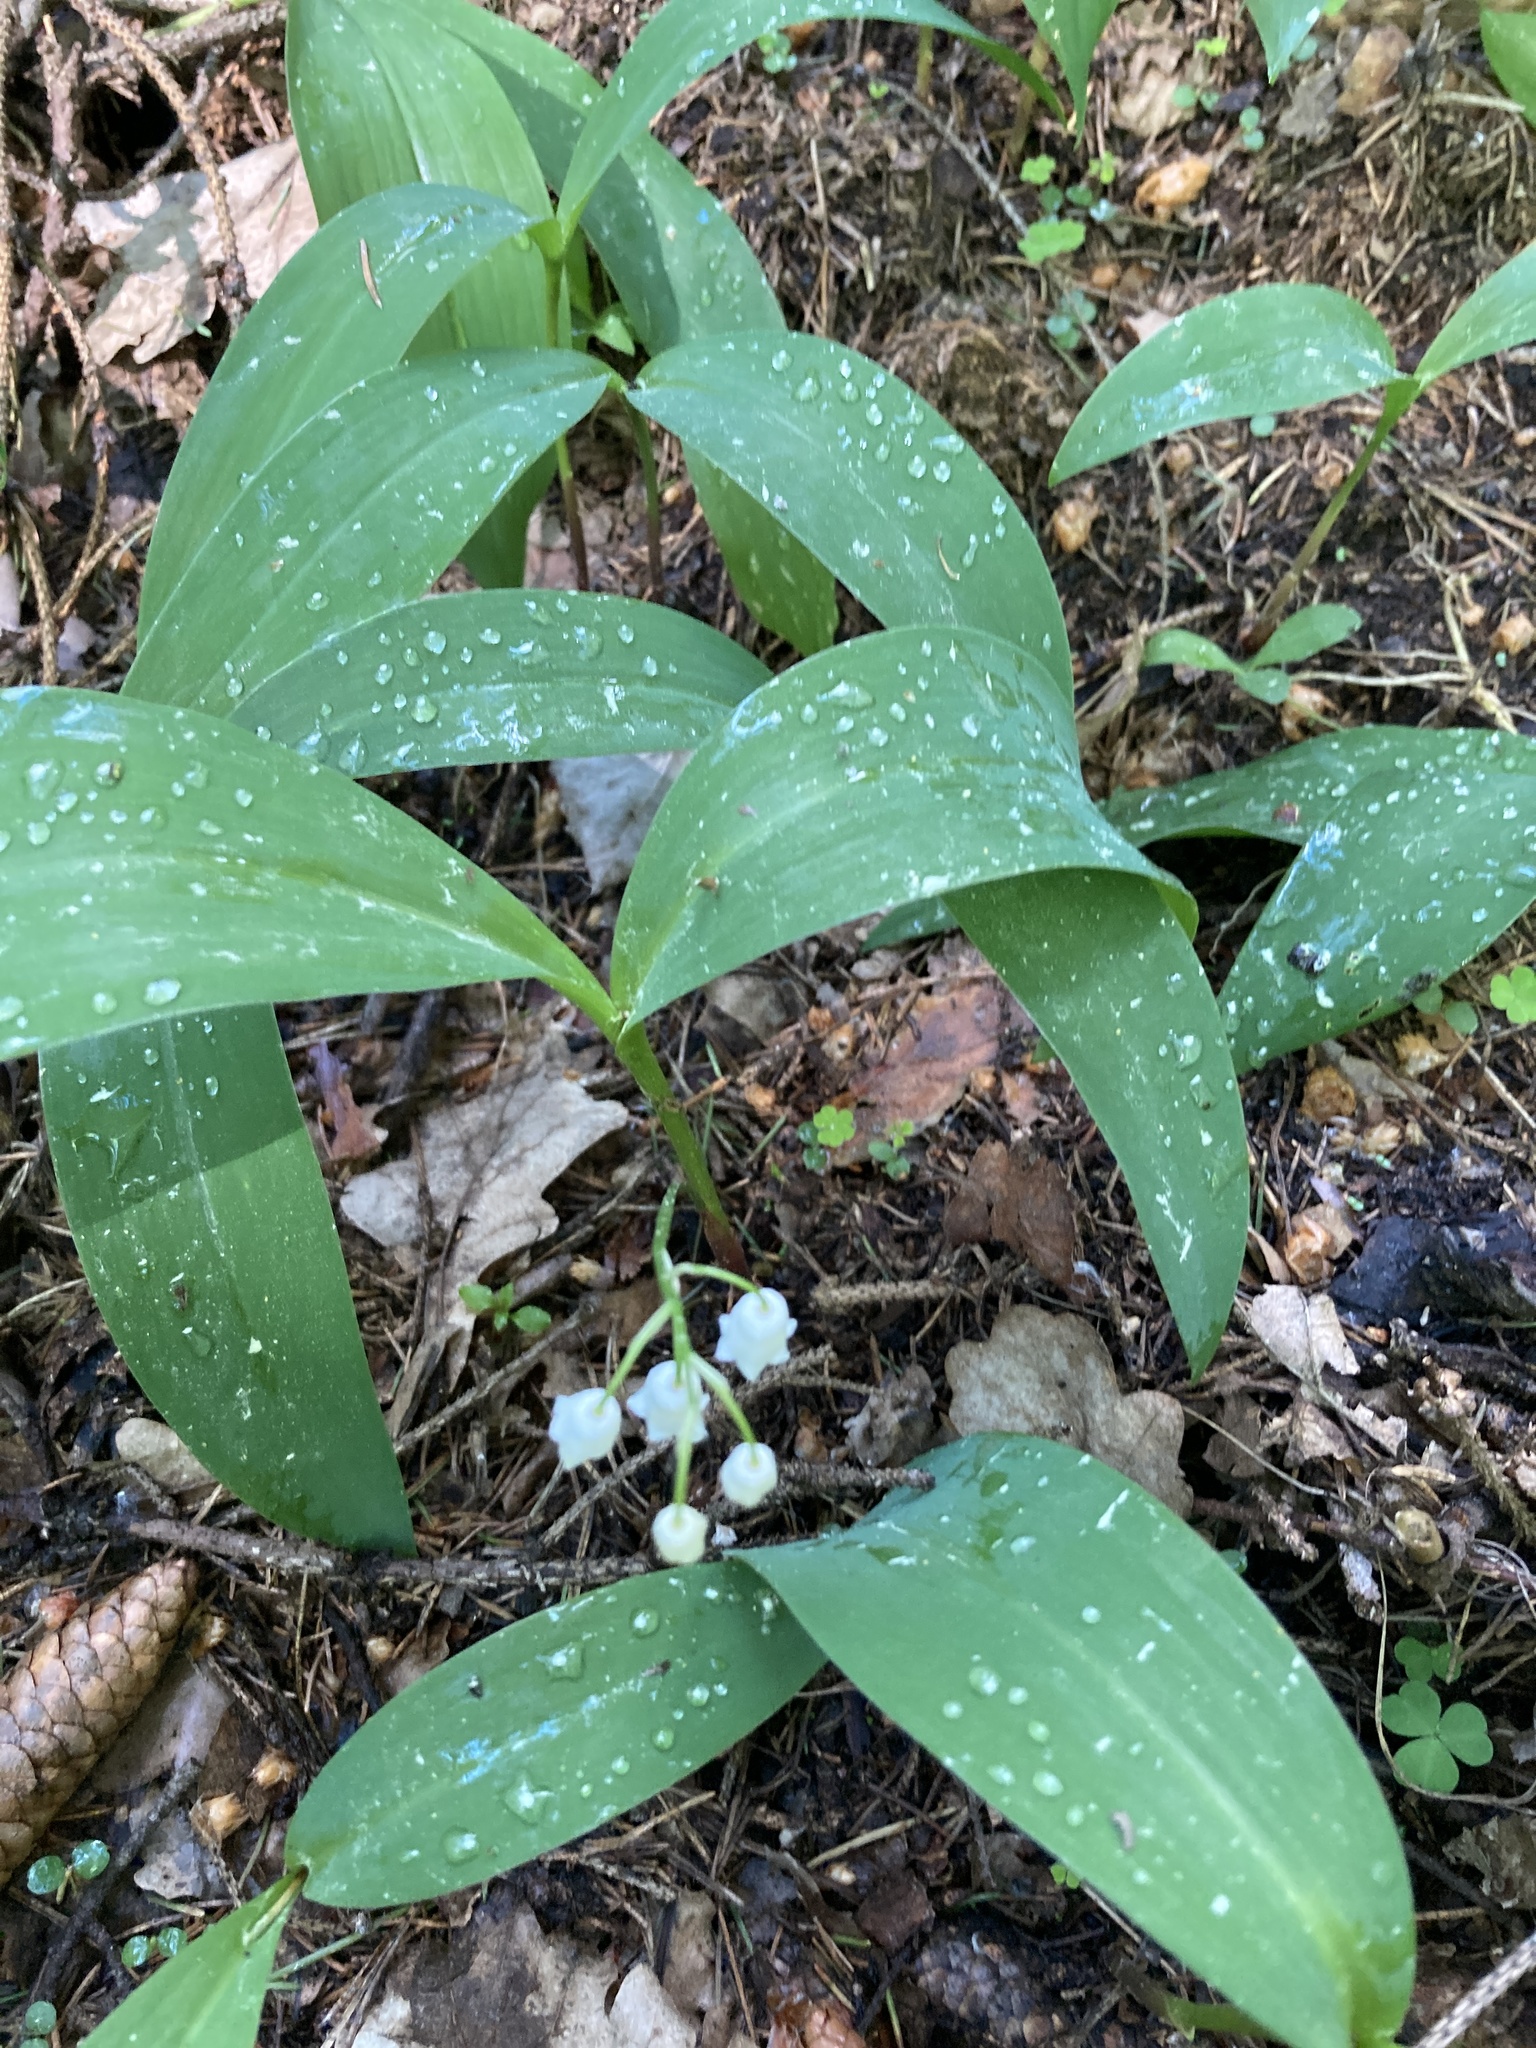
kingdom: Plantae
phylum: Tracheophyta
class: Liliopsida
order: Asparagales
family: Asparagaceae
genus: Convallaria
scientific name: Convallaria majalis
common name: Lily-of-the-valley
